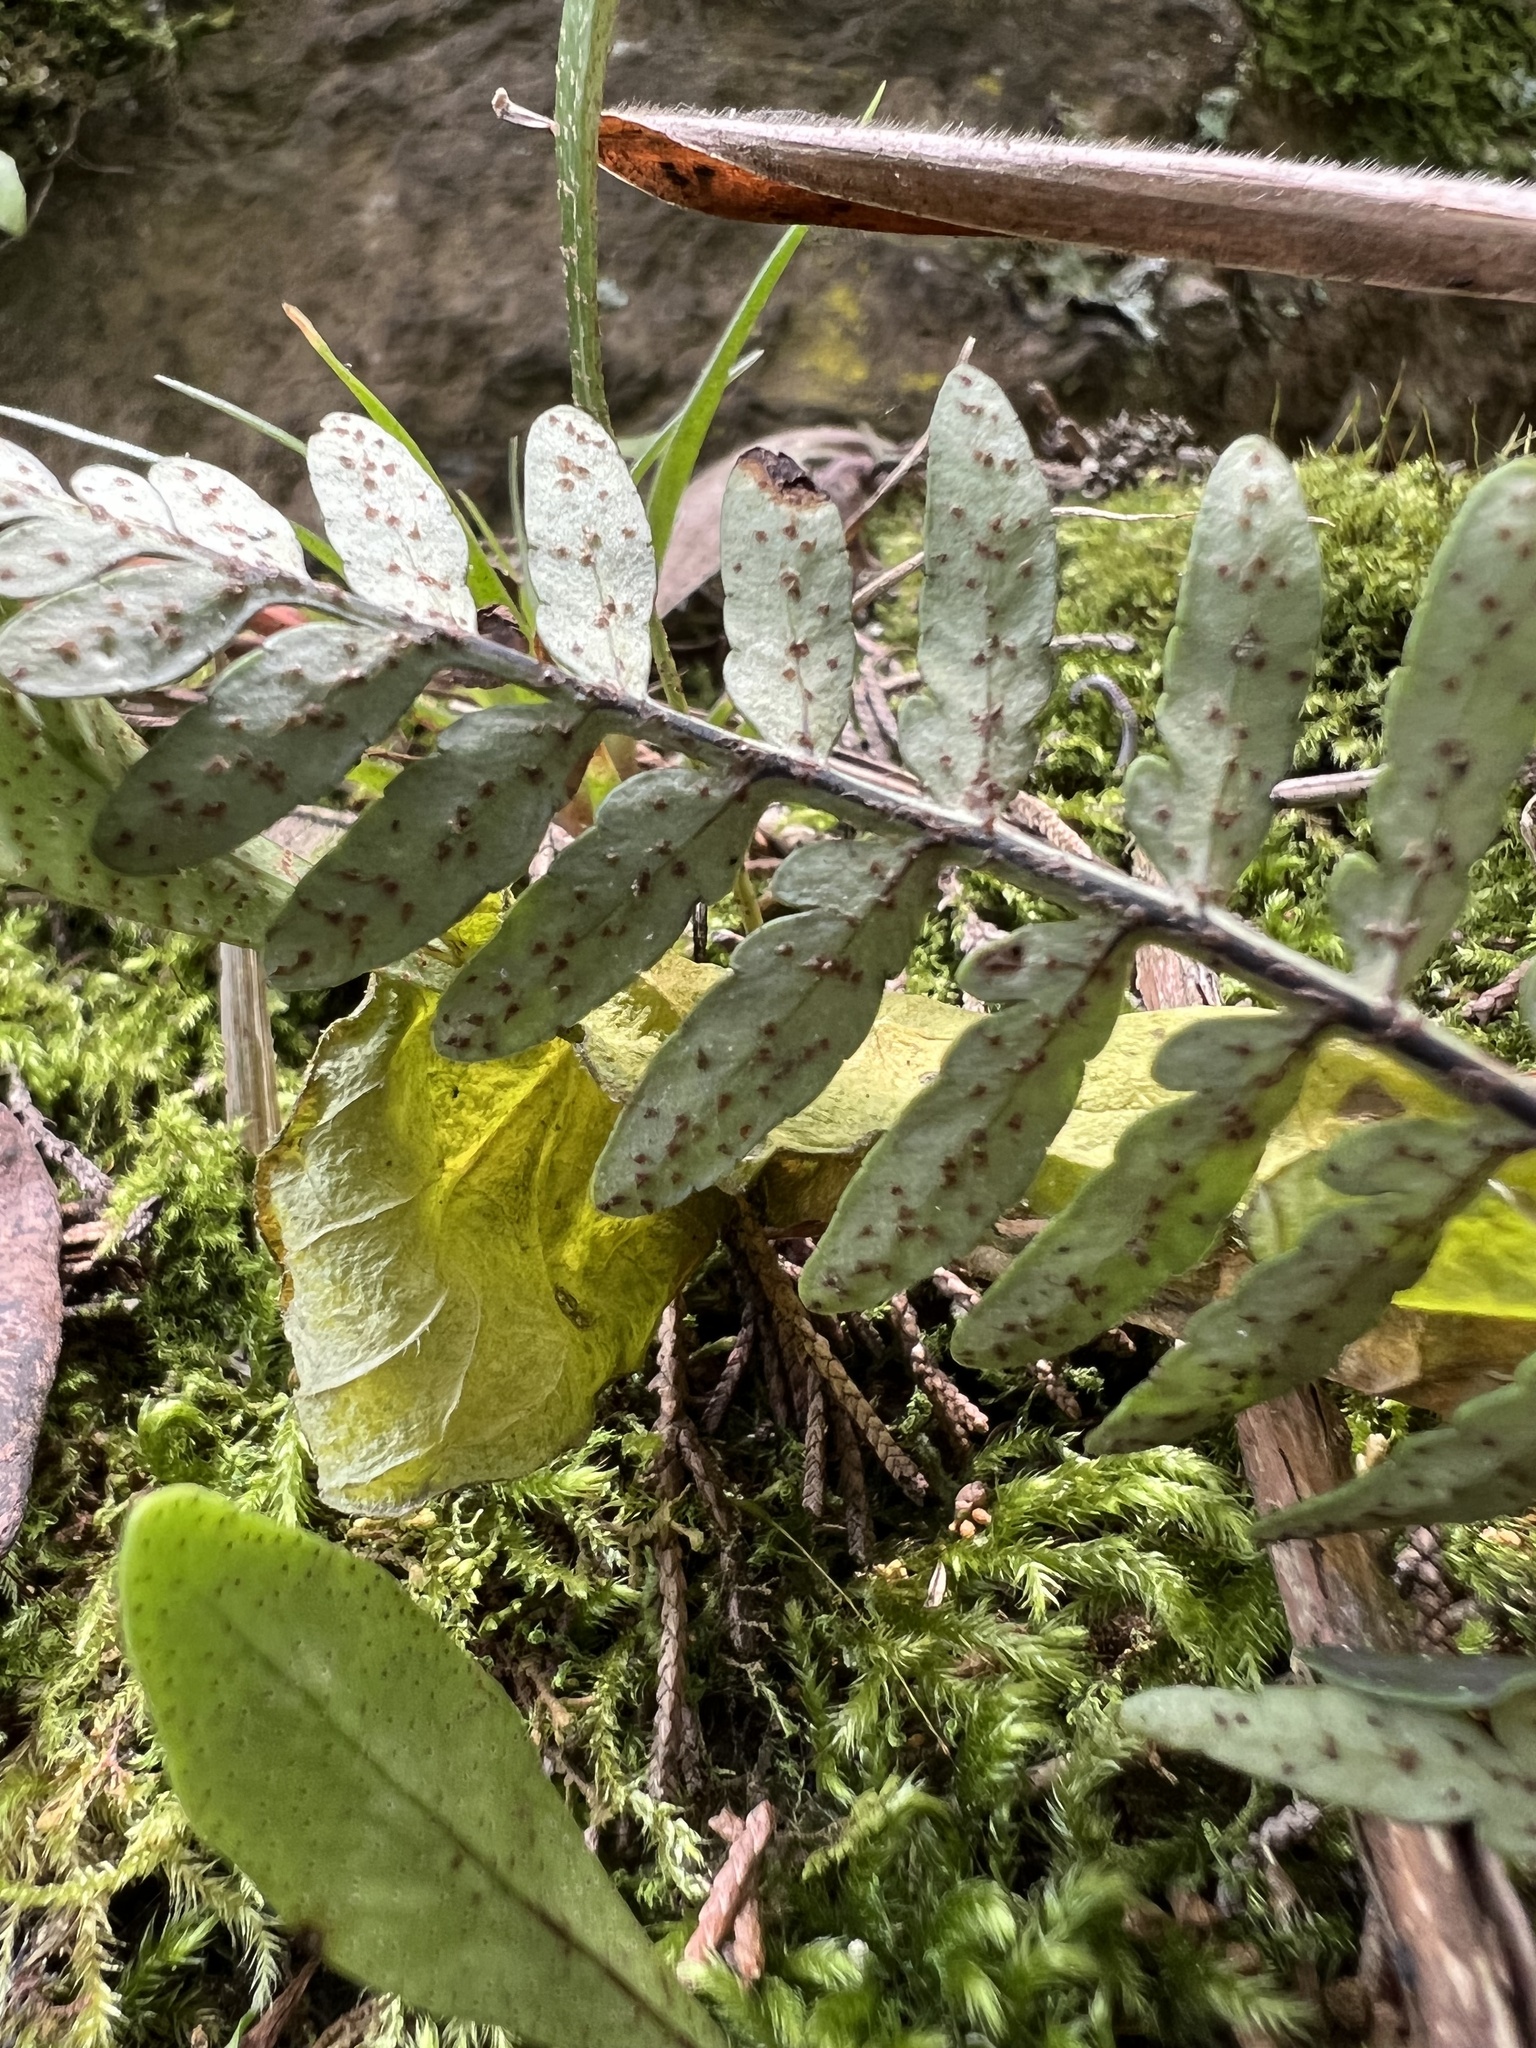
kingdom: Plantae
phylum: Tracheophyta
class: Polypodiopsida
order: Polypodiales
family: Polypodiaceae
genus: Pleopeltis
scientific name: Pleopeltis murora
